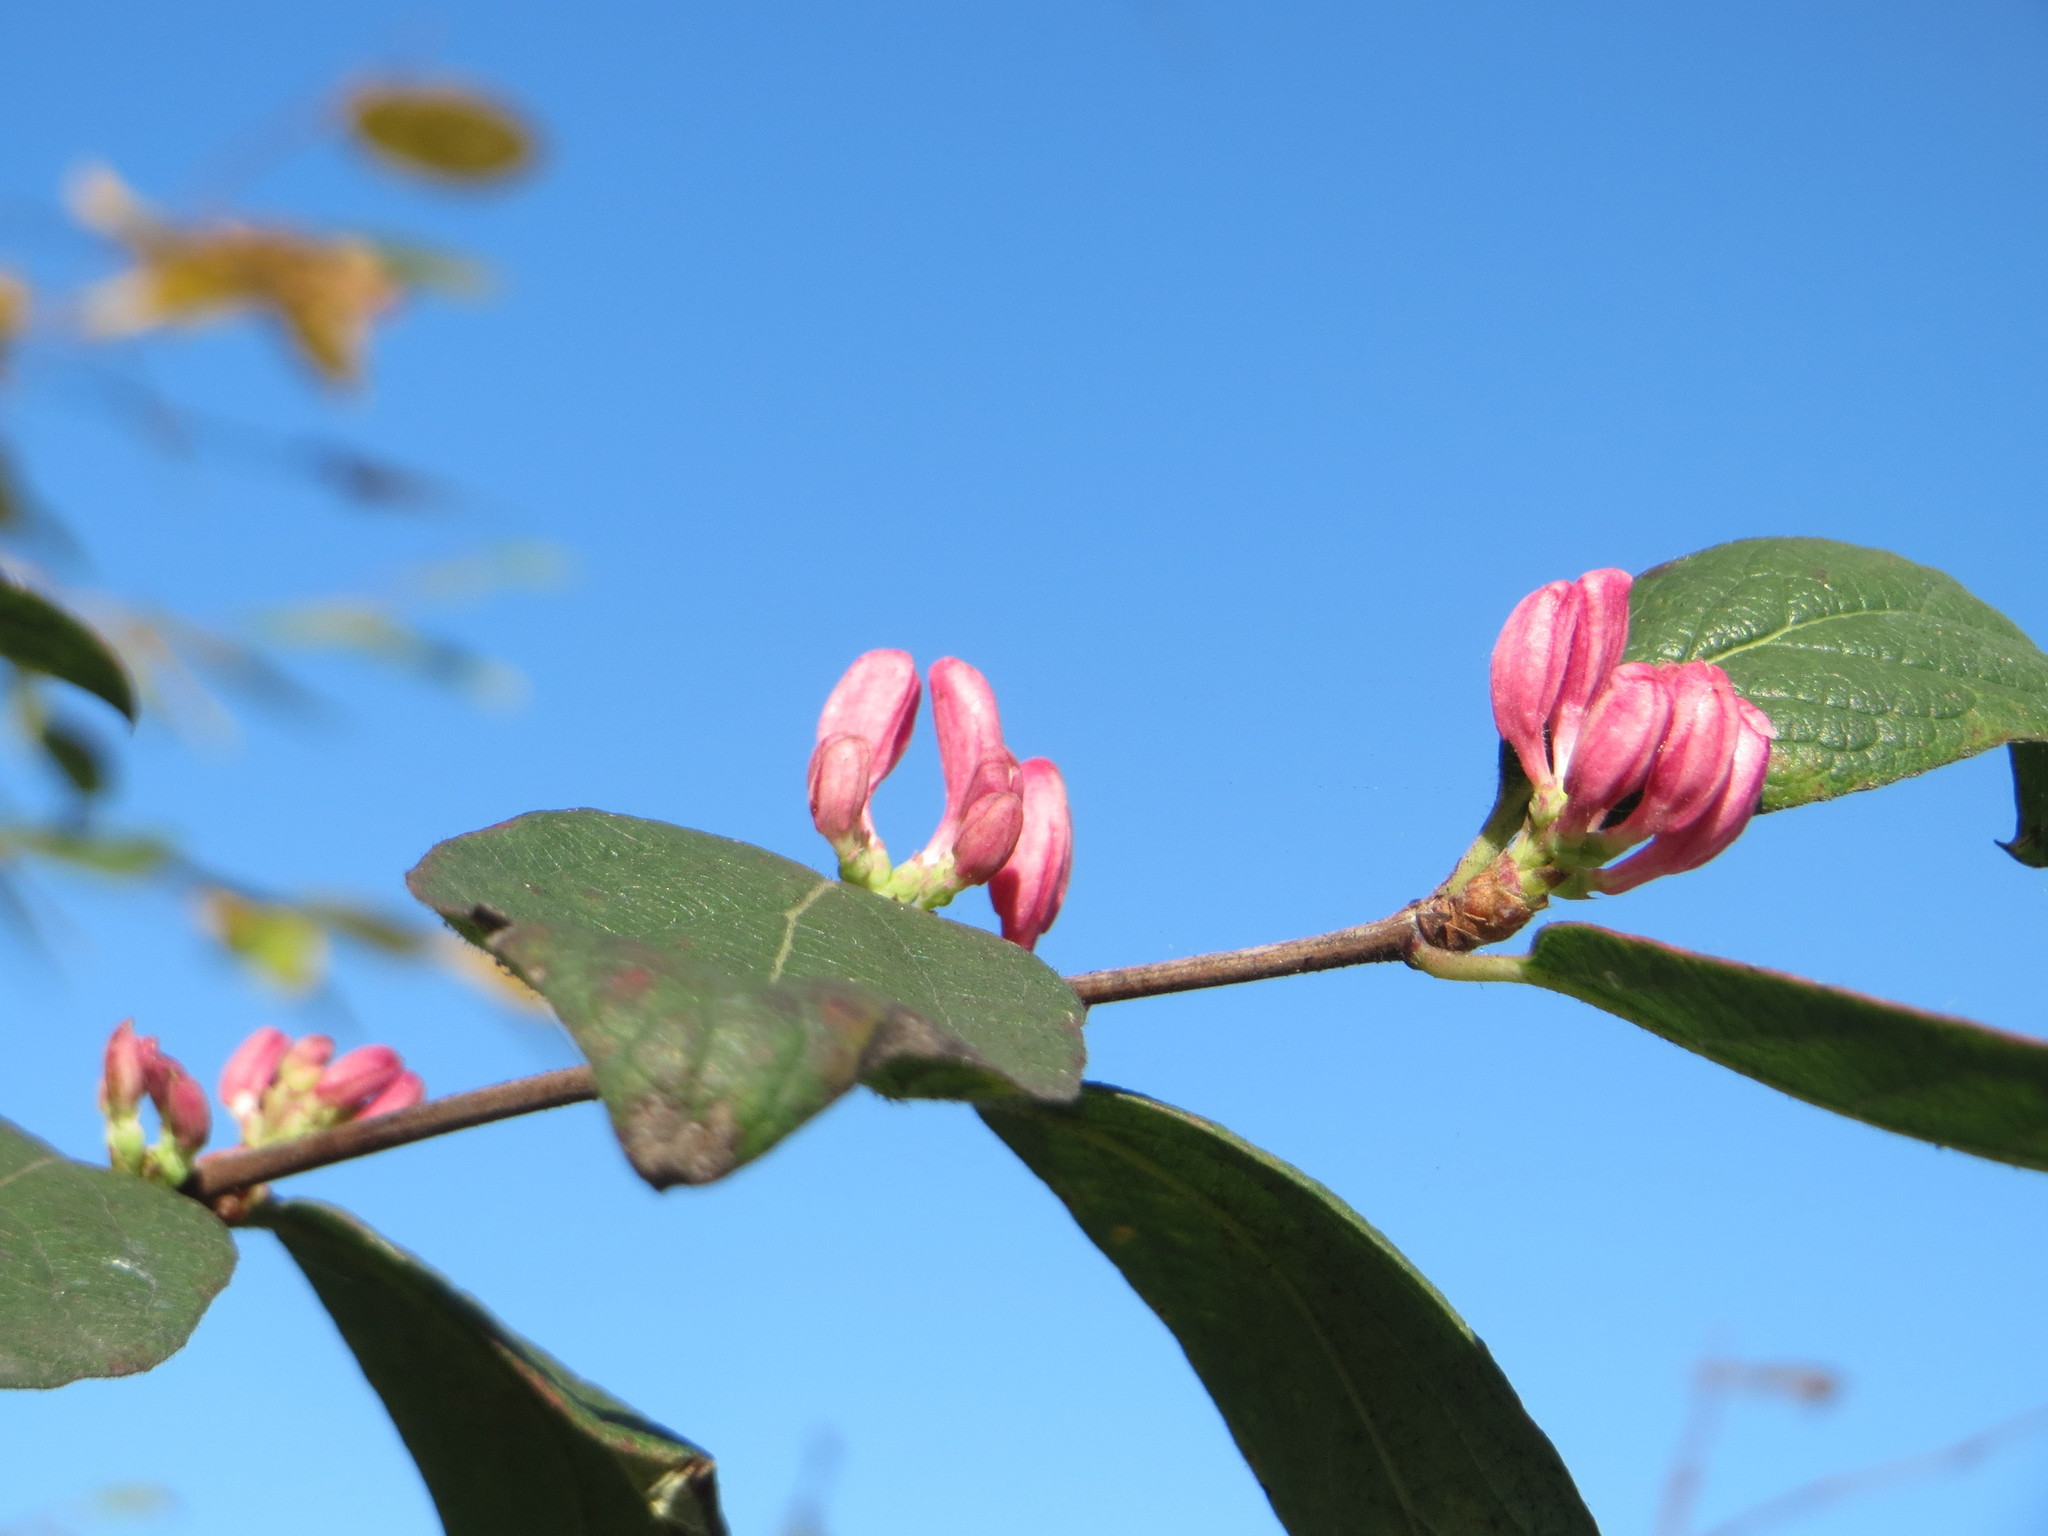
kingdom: Plantae
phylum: Tracheophyta
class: Magnoliopsida
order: Dipsacales
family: Caprifoliaceae
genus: Lonicera
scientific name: Lonicera tatarica
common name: Tatarian honeysuckle
